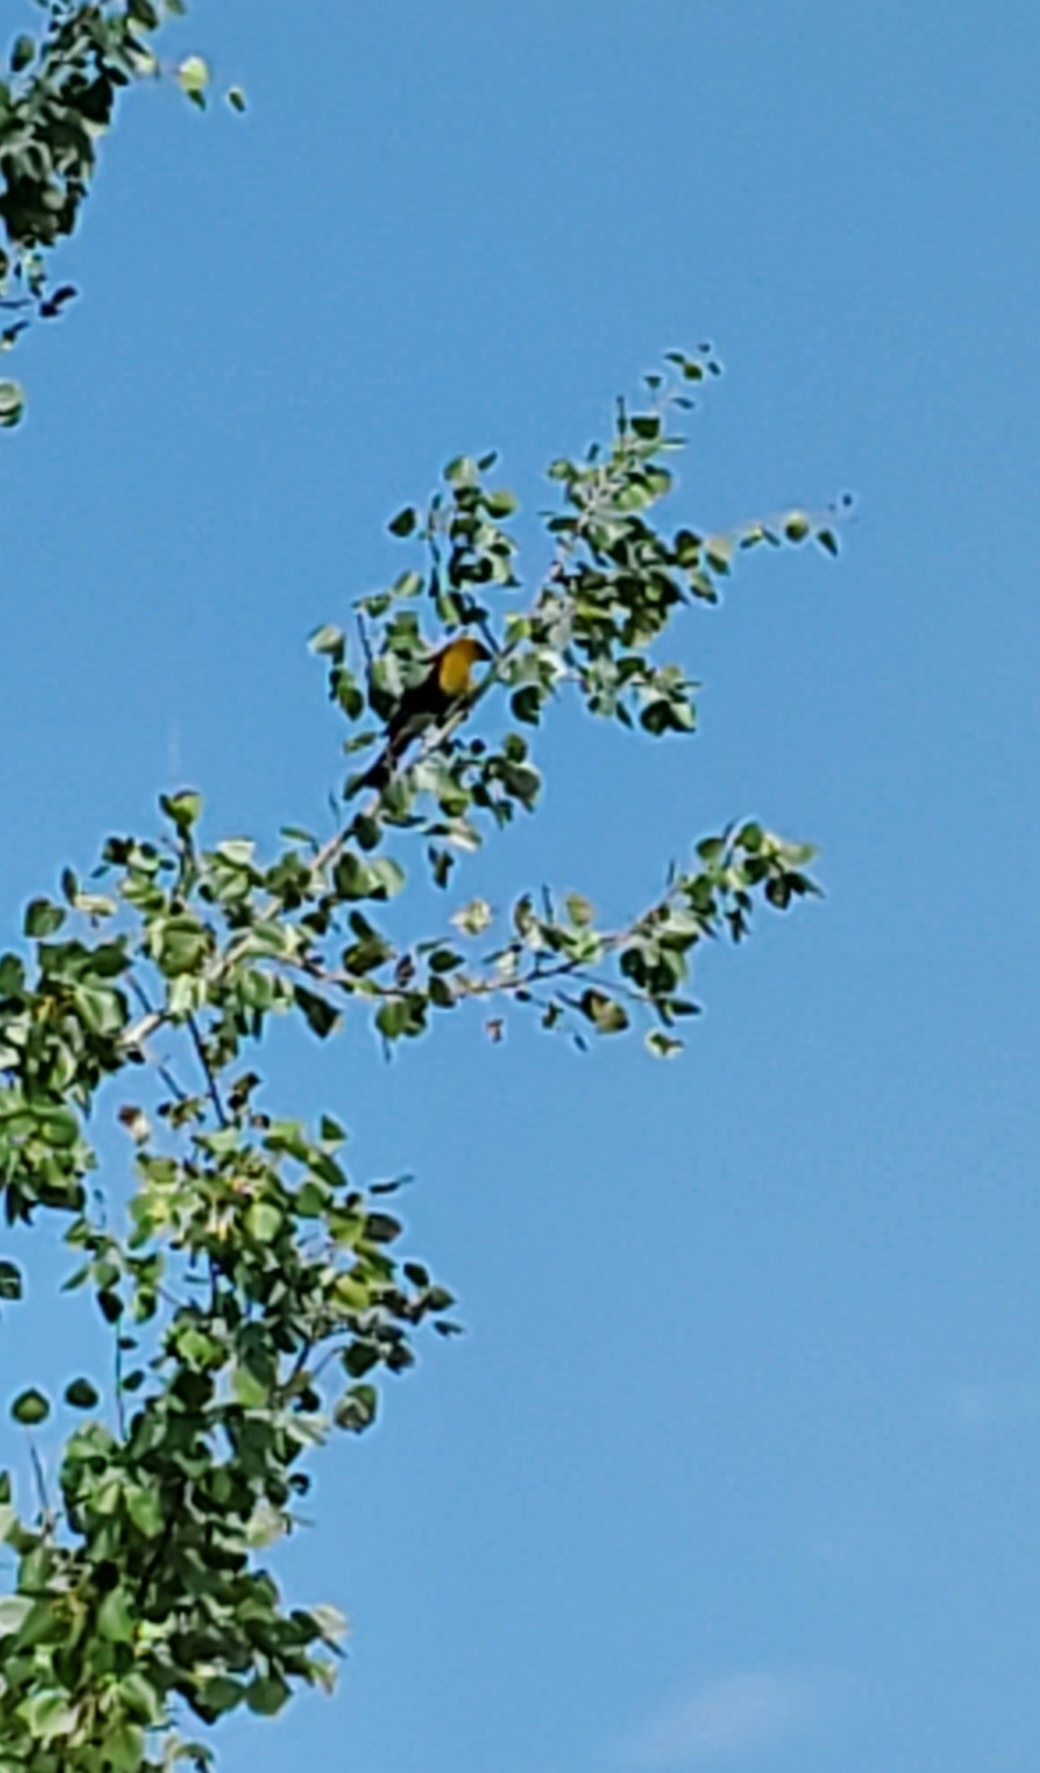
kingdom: Animalia
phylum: Chordata
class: Aves
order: Passeriformes
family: Icteridae
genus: Xanthocephalus
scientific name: Xanthocephalus xanthocephalus
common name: Yellow-headed blackbird
